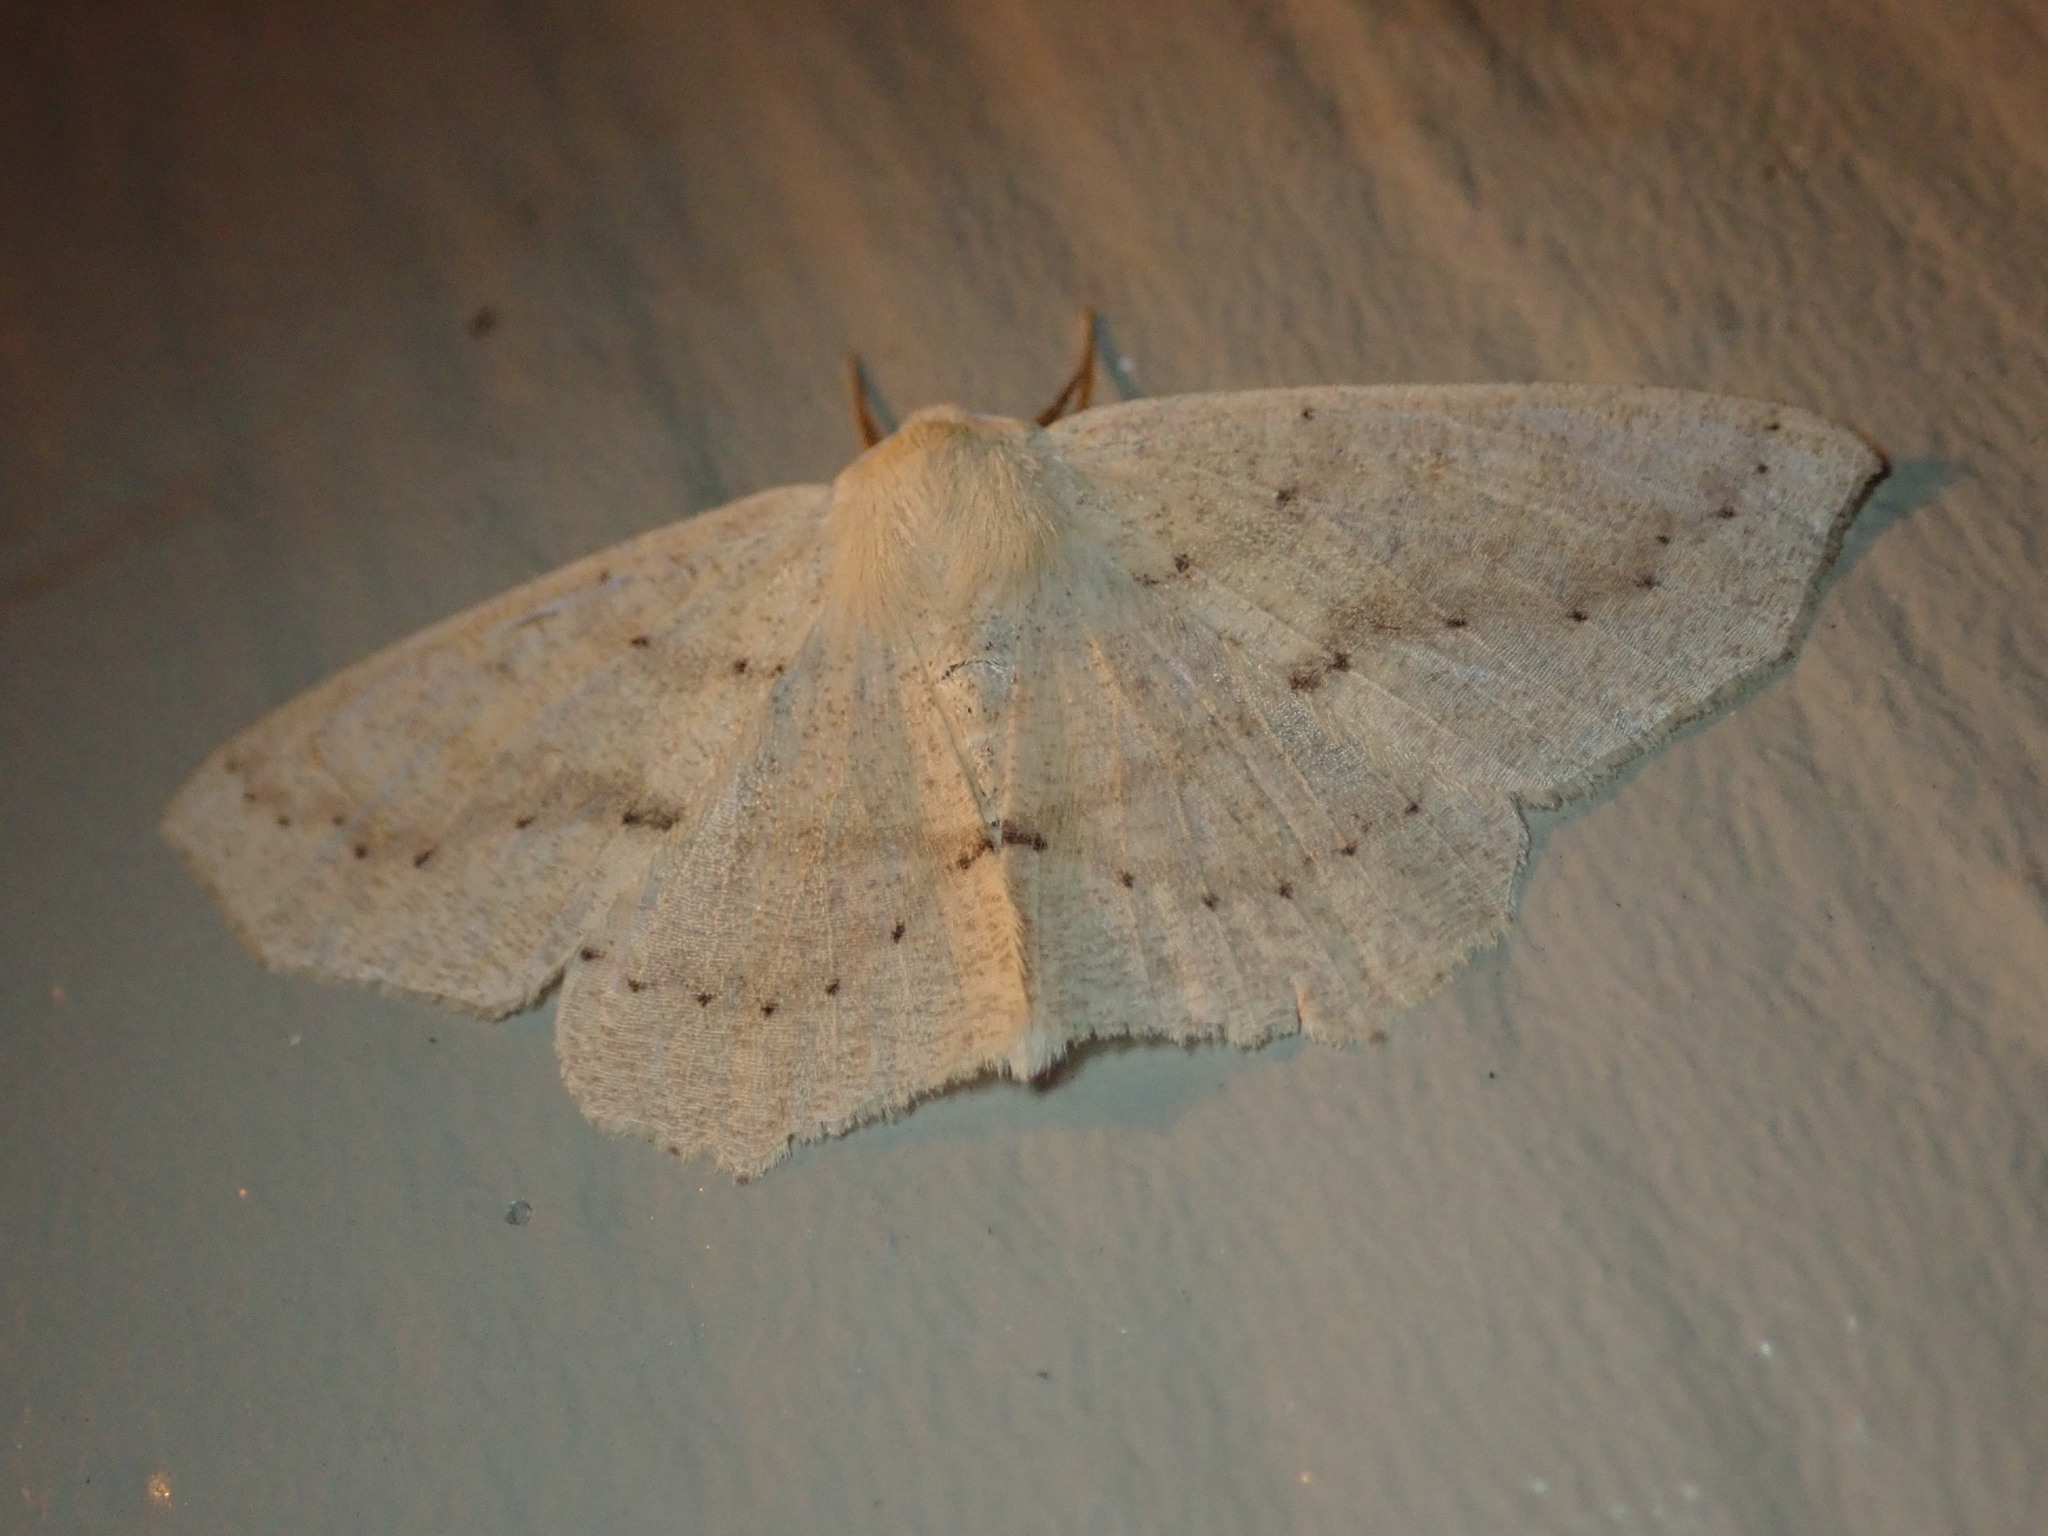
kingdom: Animalia
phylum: Arthropoda
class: Insecta
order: Lepidoptera
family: Geometridae
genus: Sabulodes
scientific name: Sabulodes aegrotata
